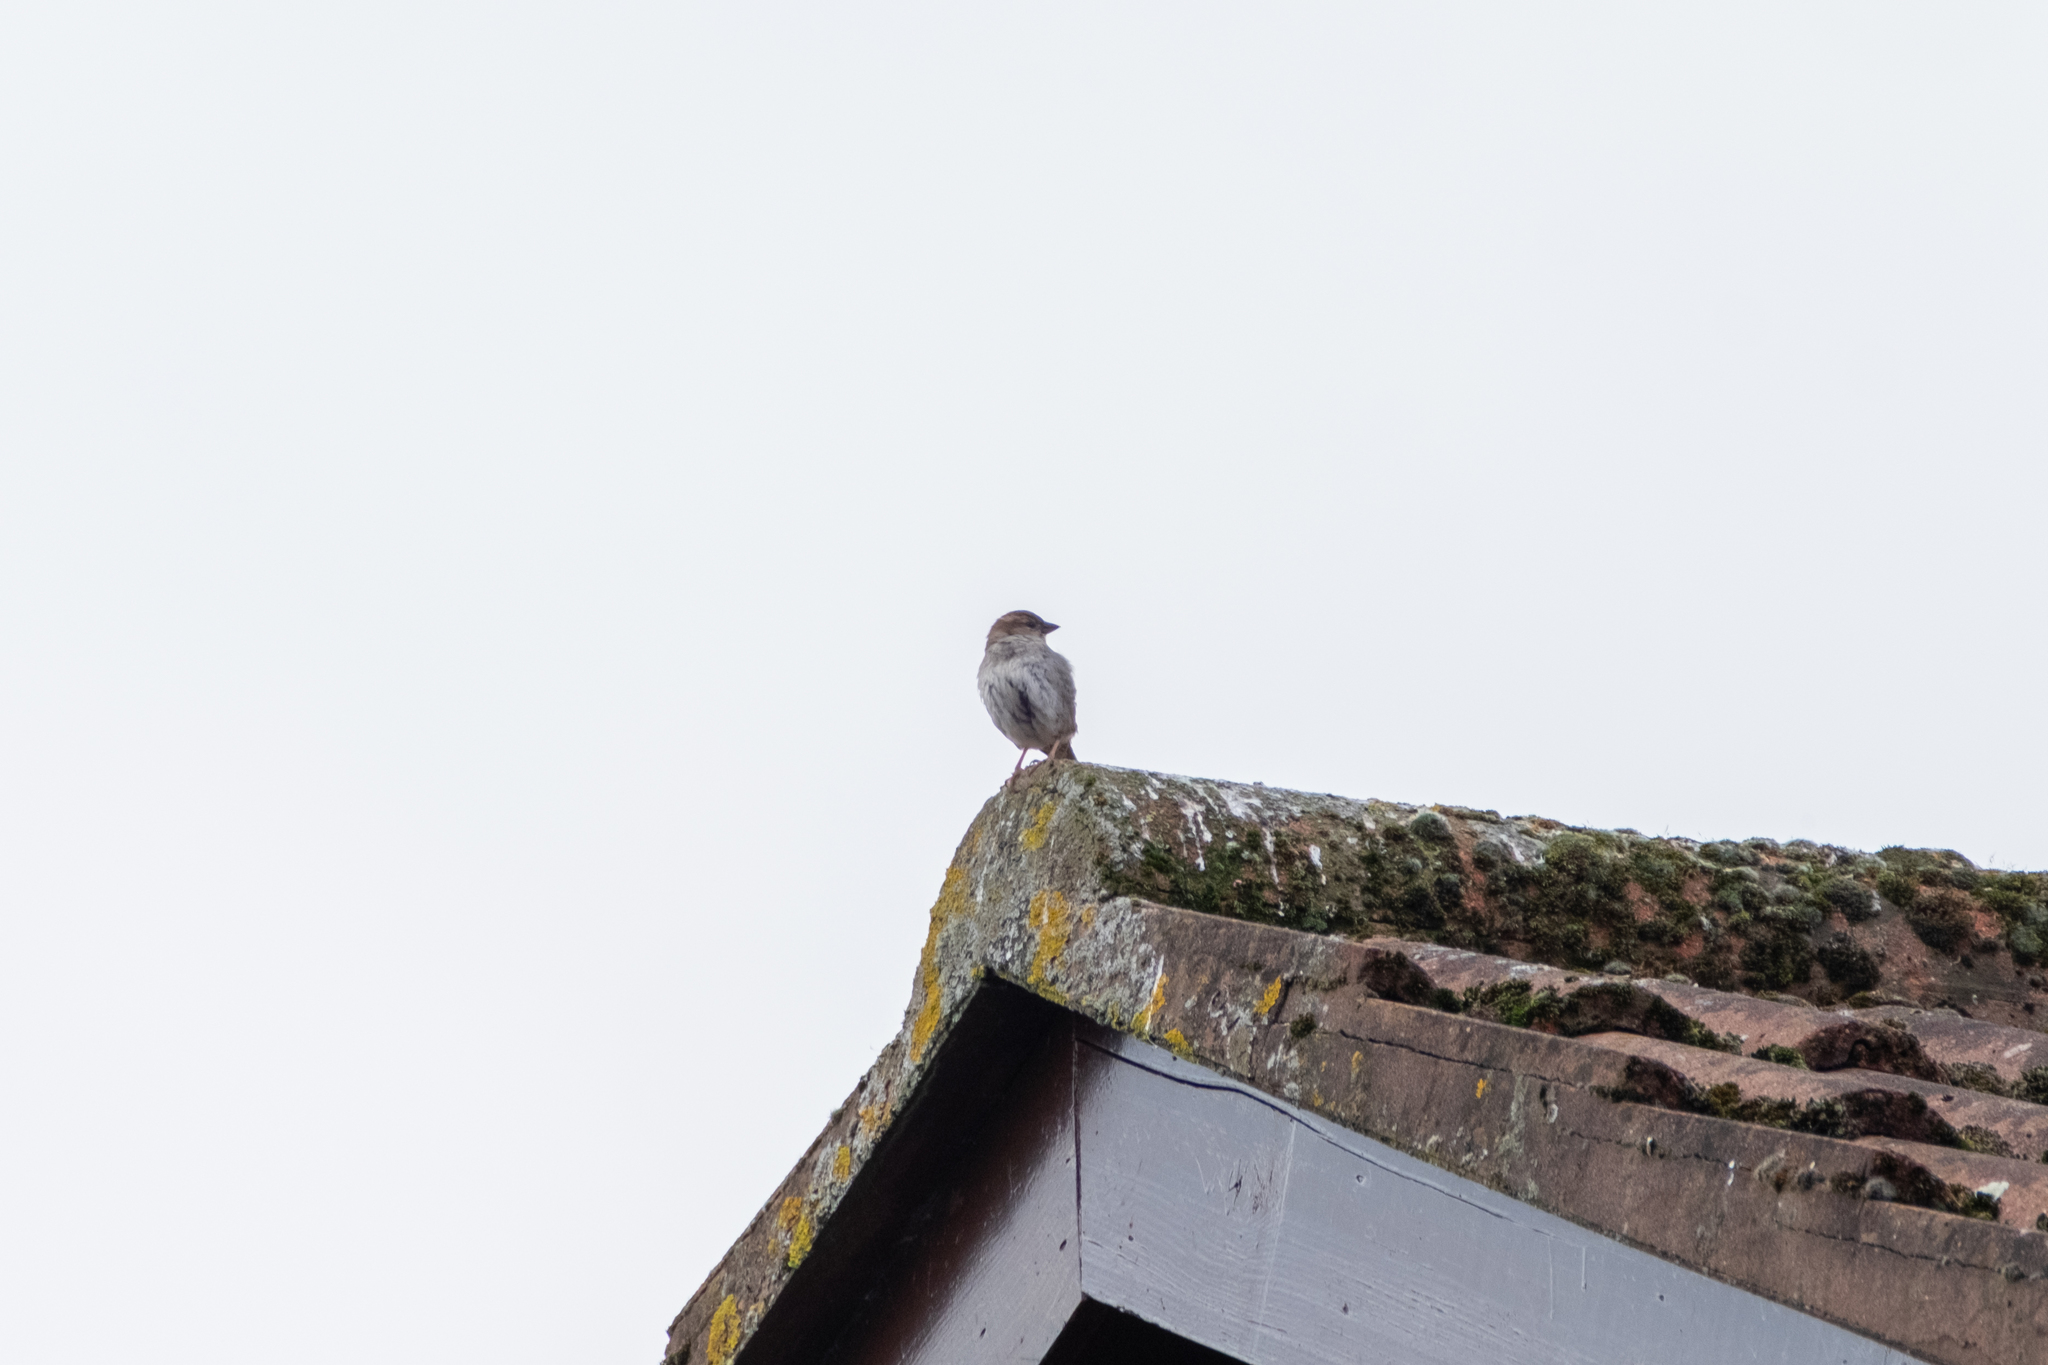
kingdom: Animalia
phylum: Chordata
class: Aves
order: Passeriformes
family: Passeridae
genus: Passer
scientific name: Passer domesticus
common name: House sparrow
